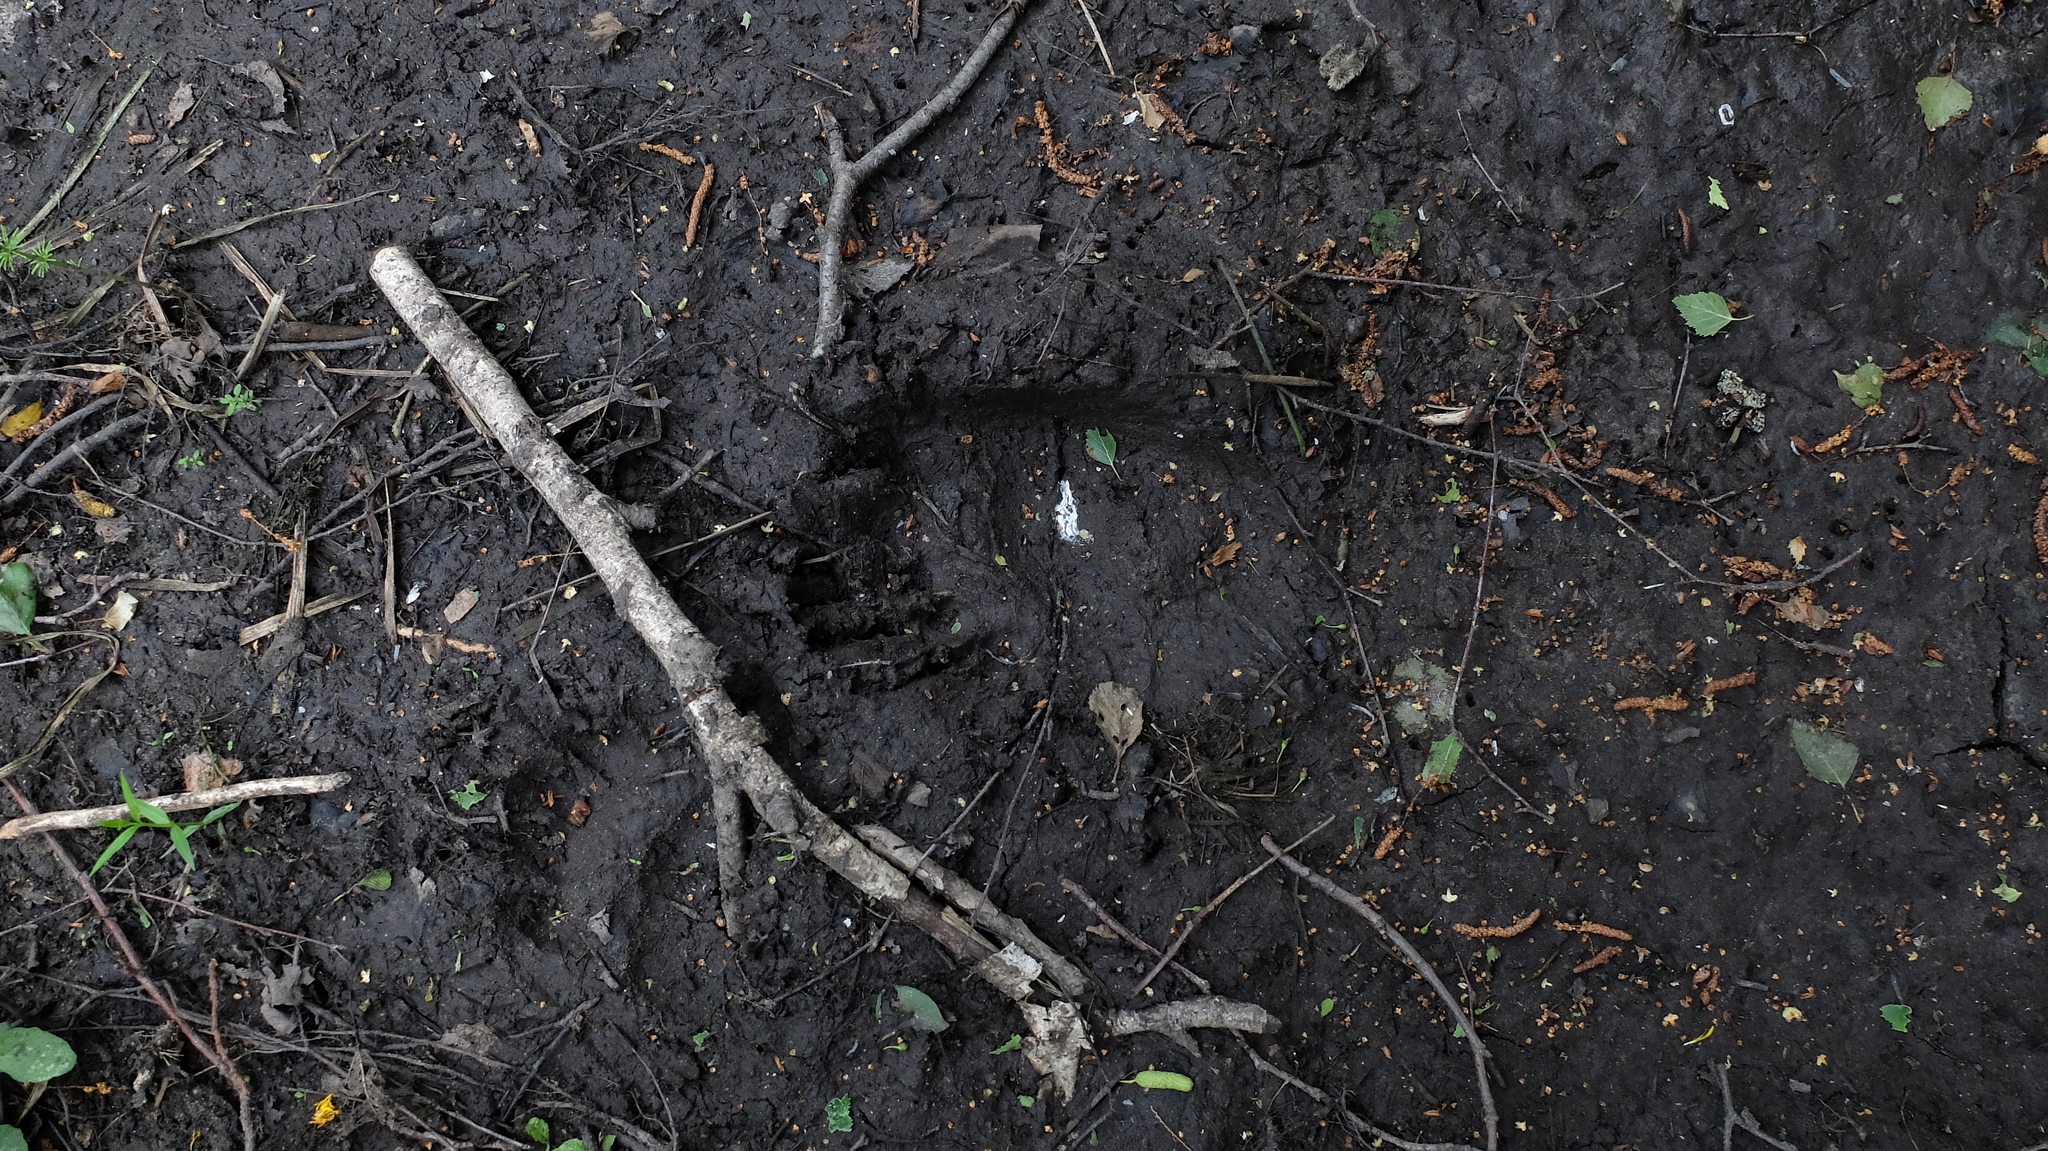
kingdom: Animalia
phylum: Chordata
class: Mammalia
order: Carnivora
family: Ursidae
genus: Ursus
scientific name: Ursus arctos
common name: Brown bear
